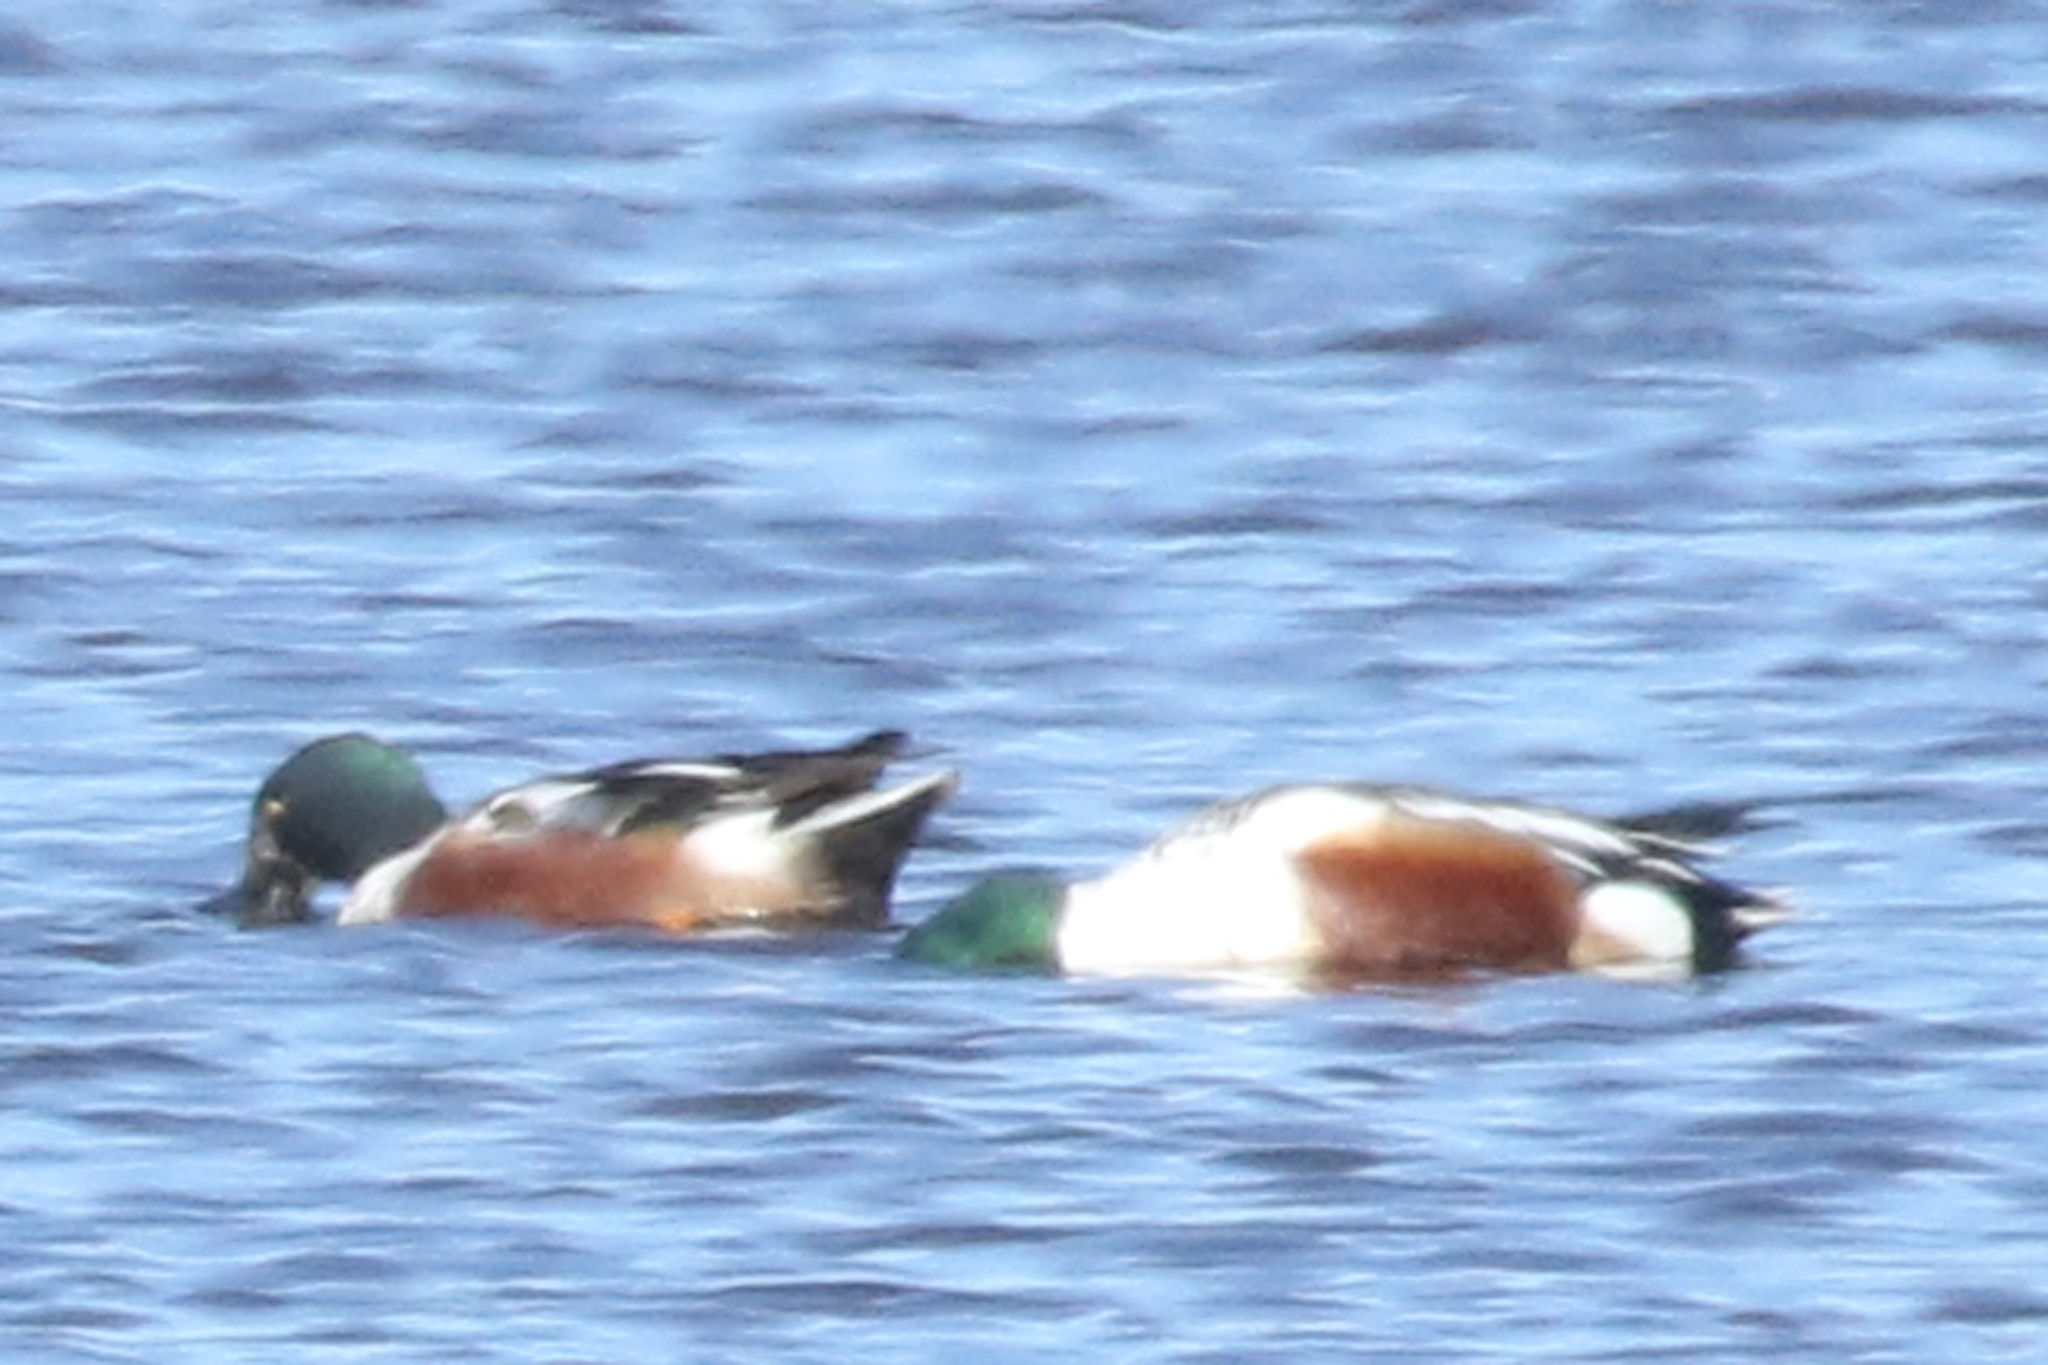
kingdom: Animalia
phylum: Chordata
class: Aves
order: Anseriformes
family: Anatidae
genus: Spatula
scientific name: Spatula clypeata
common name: Northern shoveler
